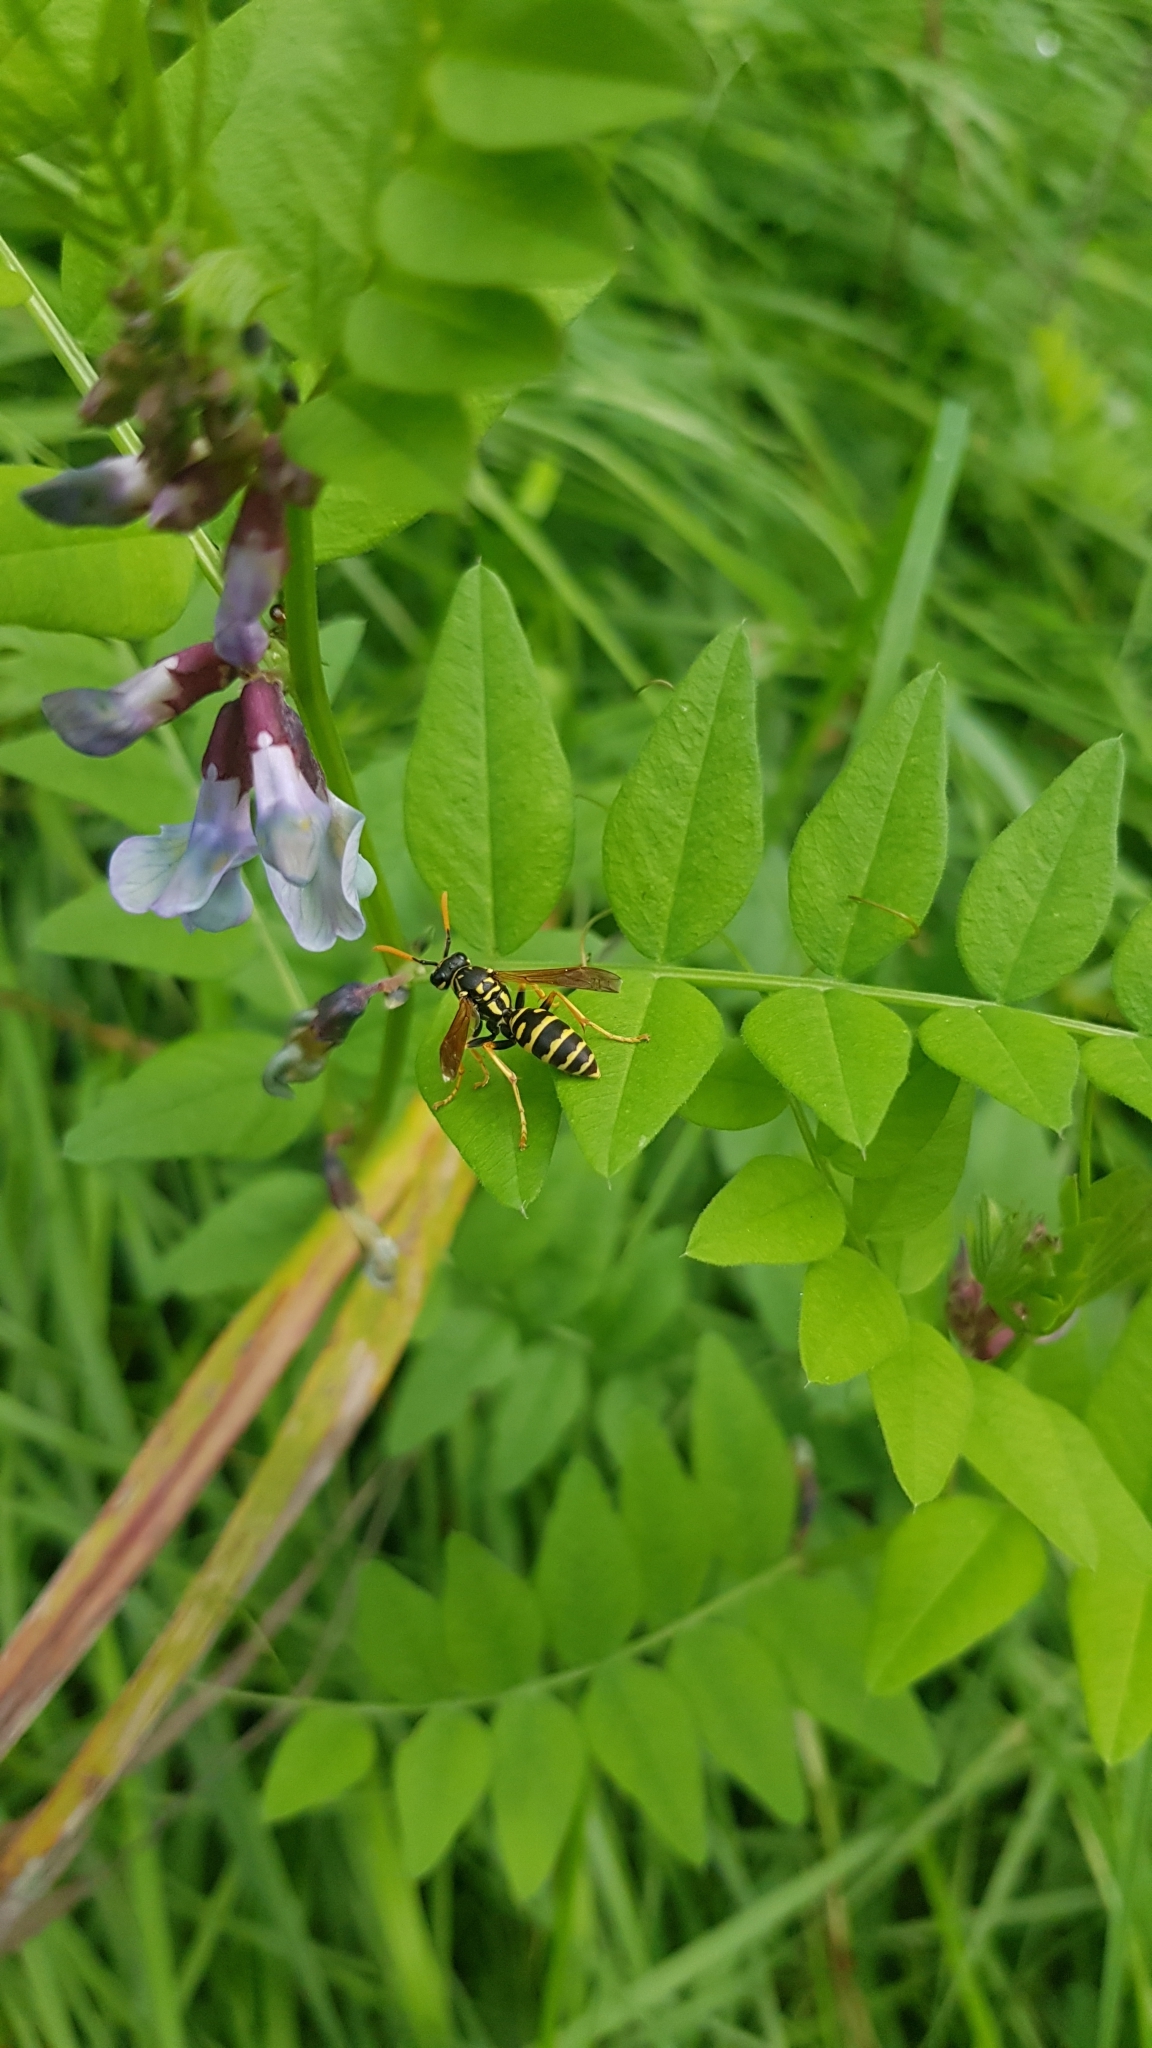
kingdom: Animalia
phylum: Arthropoda
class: Insecta
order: Hymenoptera
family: Eumenidae
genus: Polistes
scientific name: Polistes dominula
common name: Paper wasp
